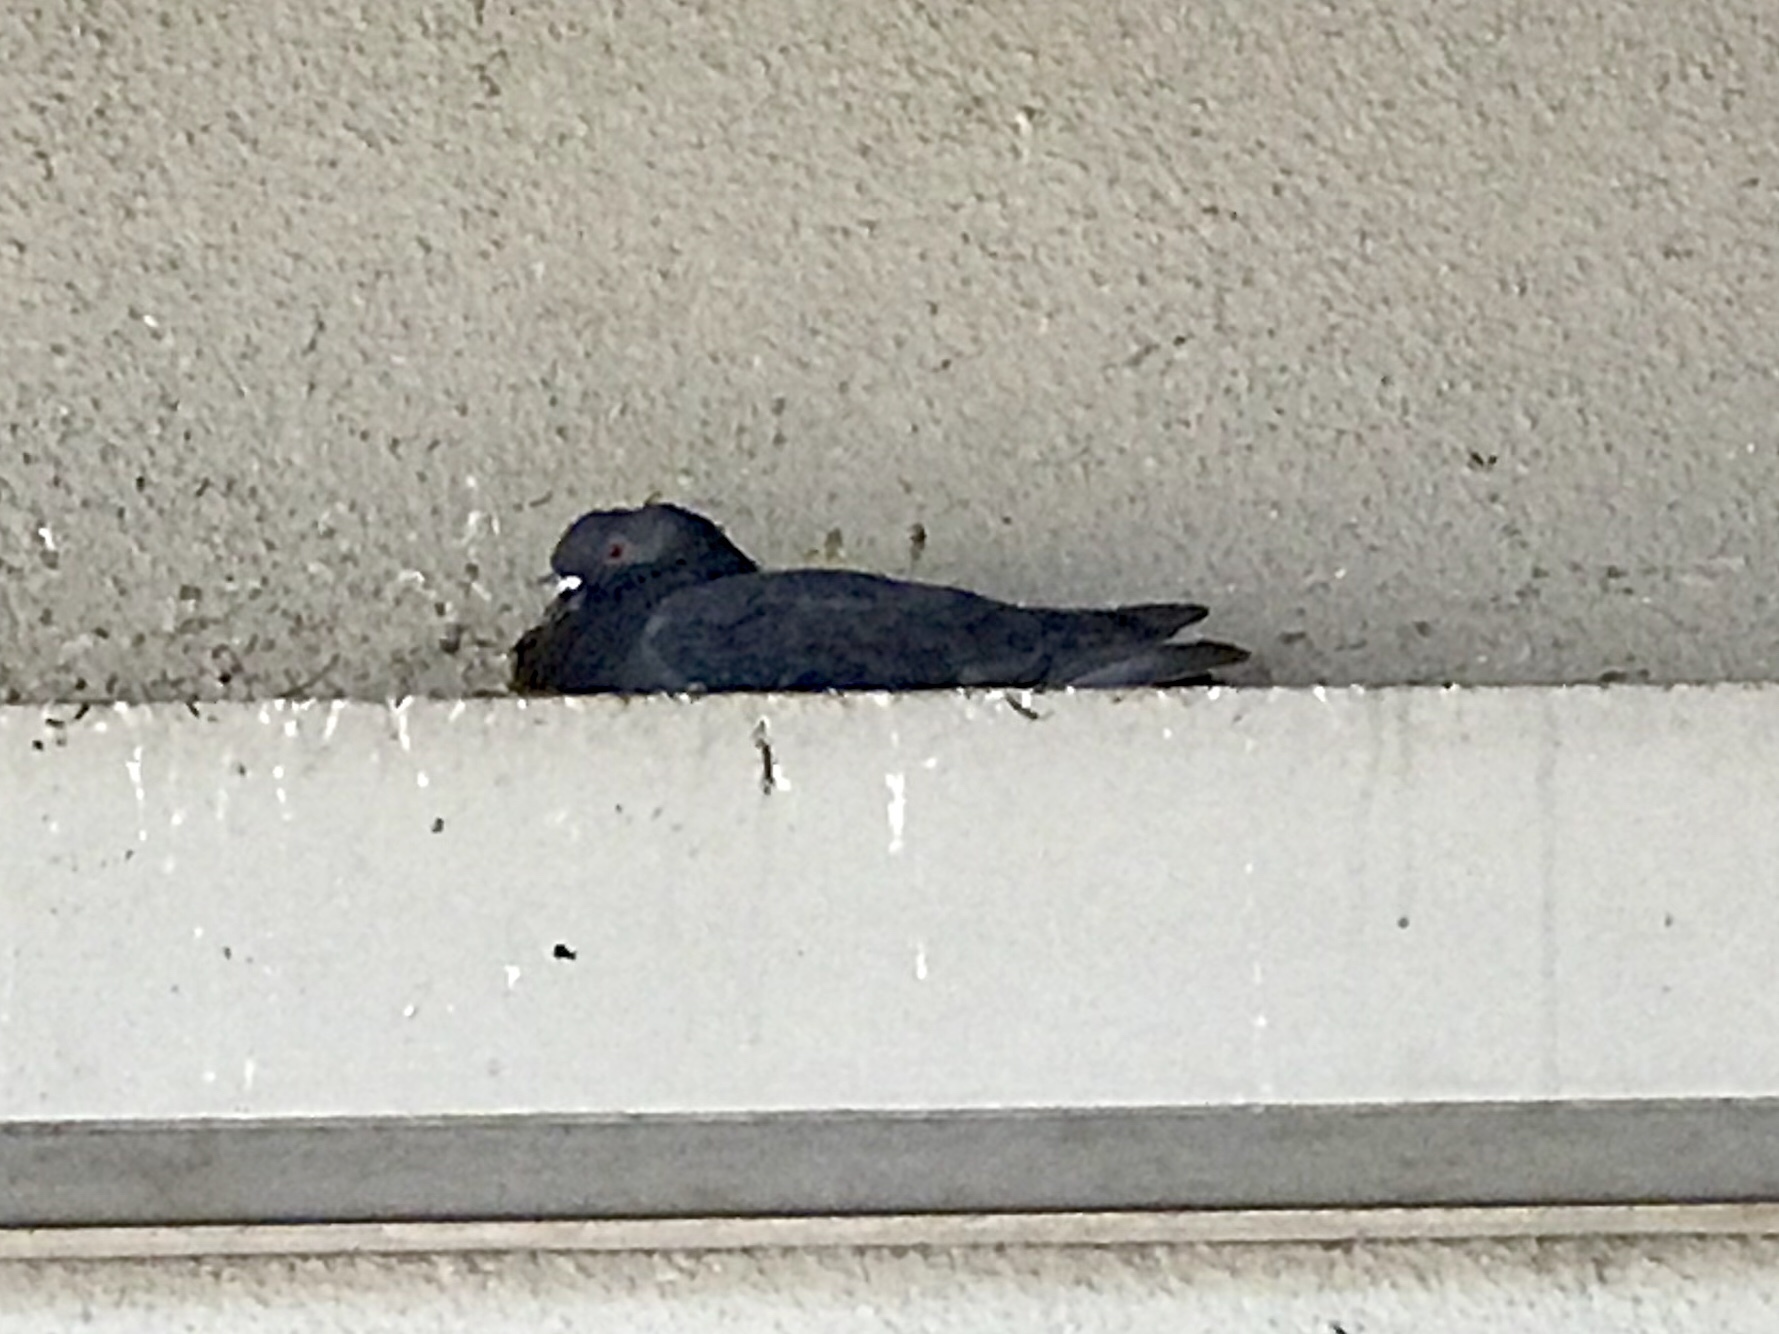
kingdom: Animalia
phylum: Chordata
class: Aves
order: Columbiformes
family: Columbidae
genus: Columba
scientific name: Columba livia
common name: Rock pigeon
